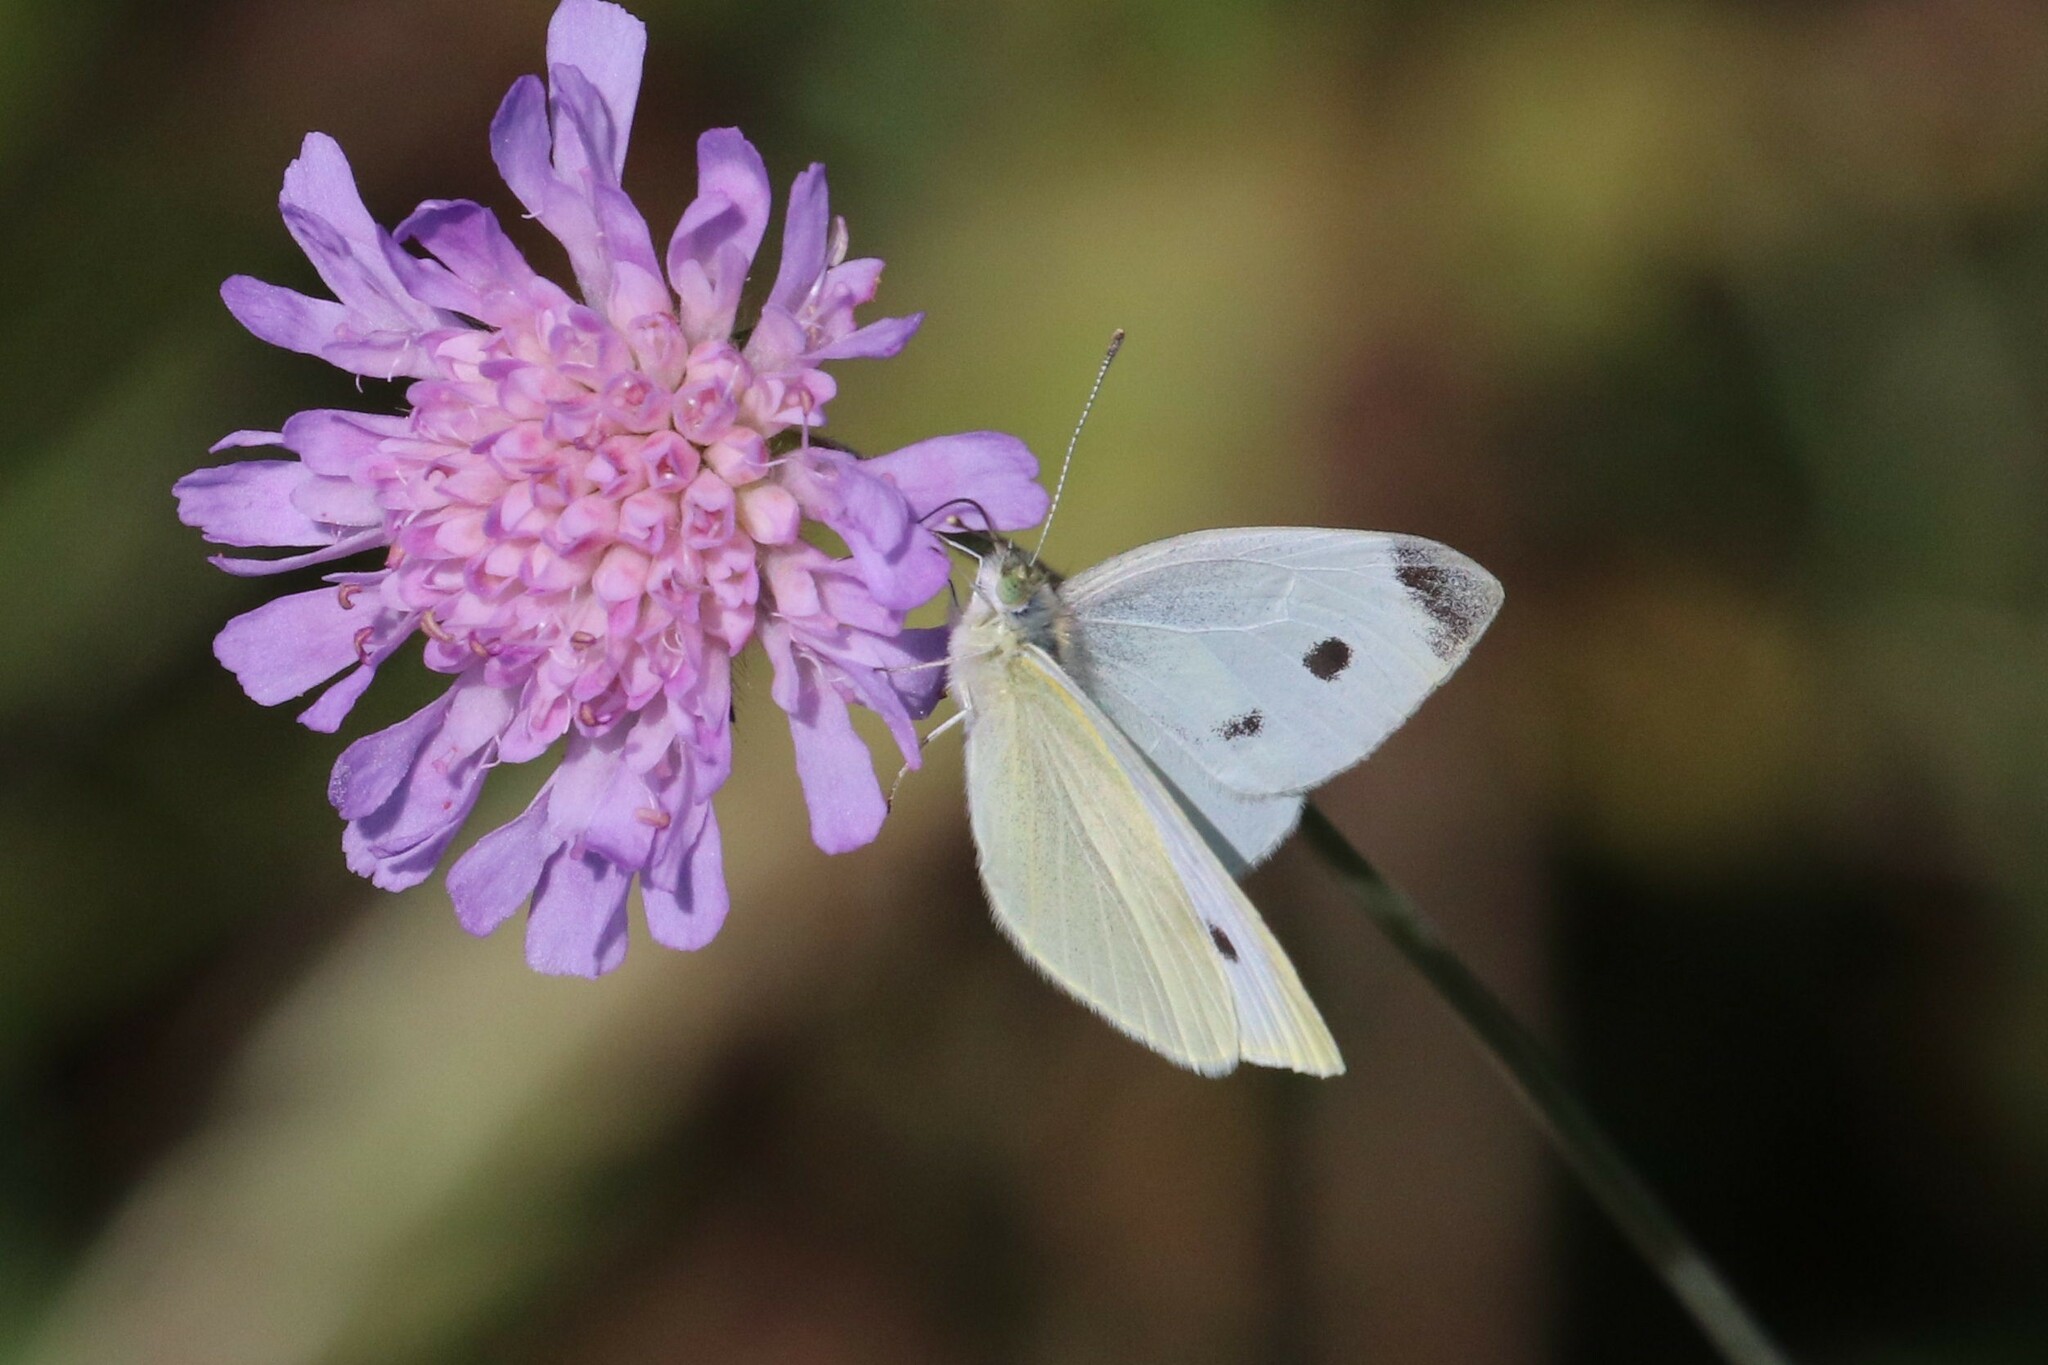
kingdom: Animalia
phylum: Arthropoda
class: Insecta
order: Lepidoptera
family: Pieridae
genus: Pieris
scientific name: Pieris rapae
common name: Small white
